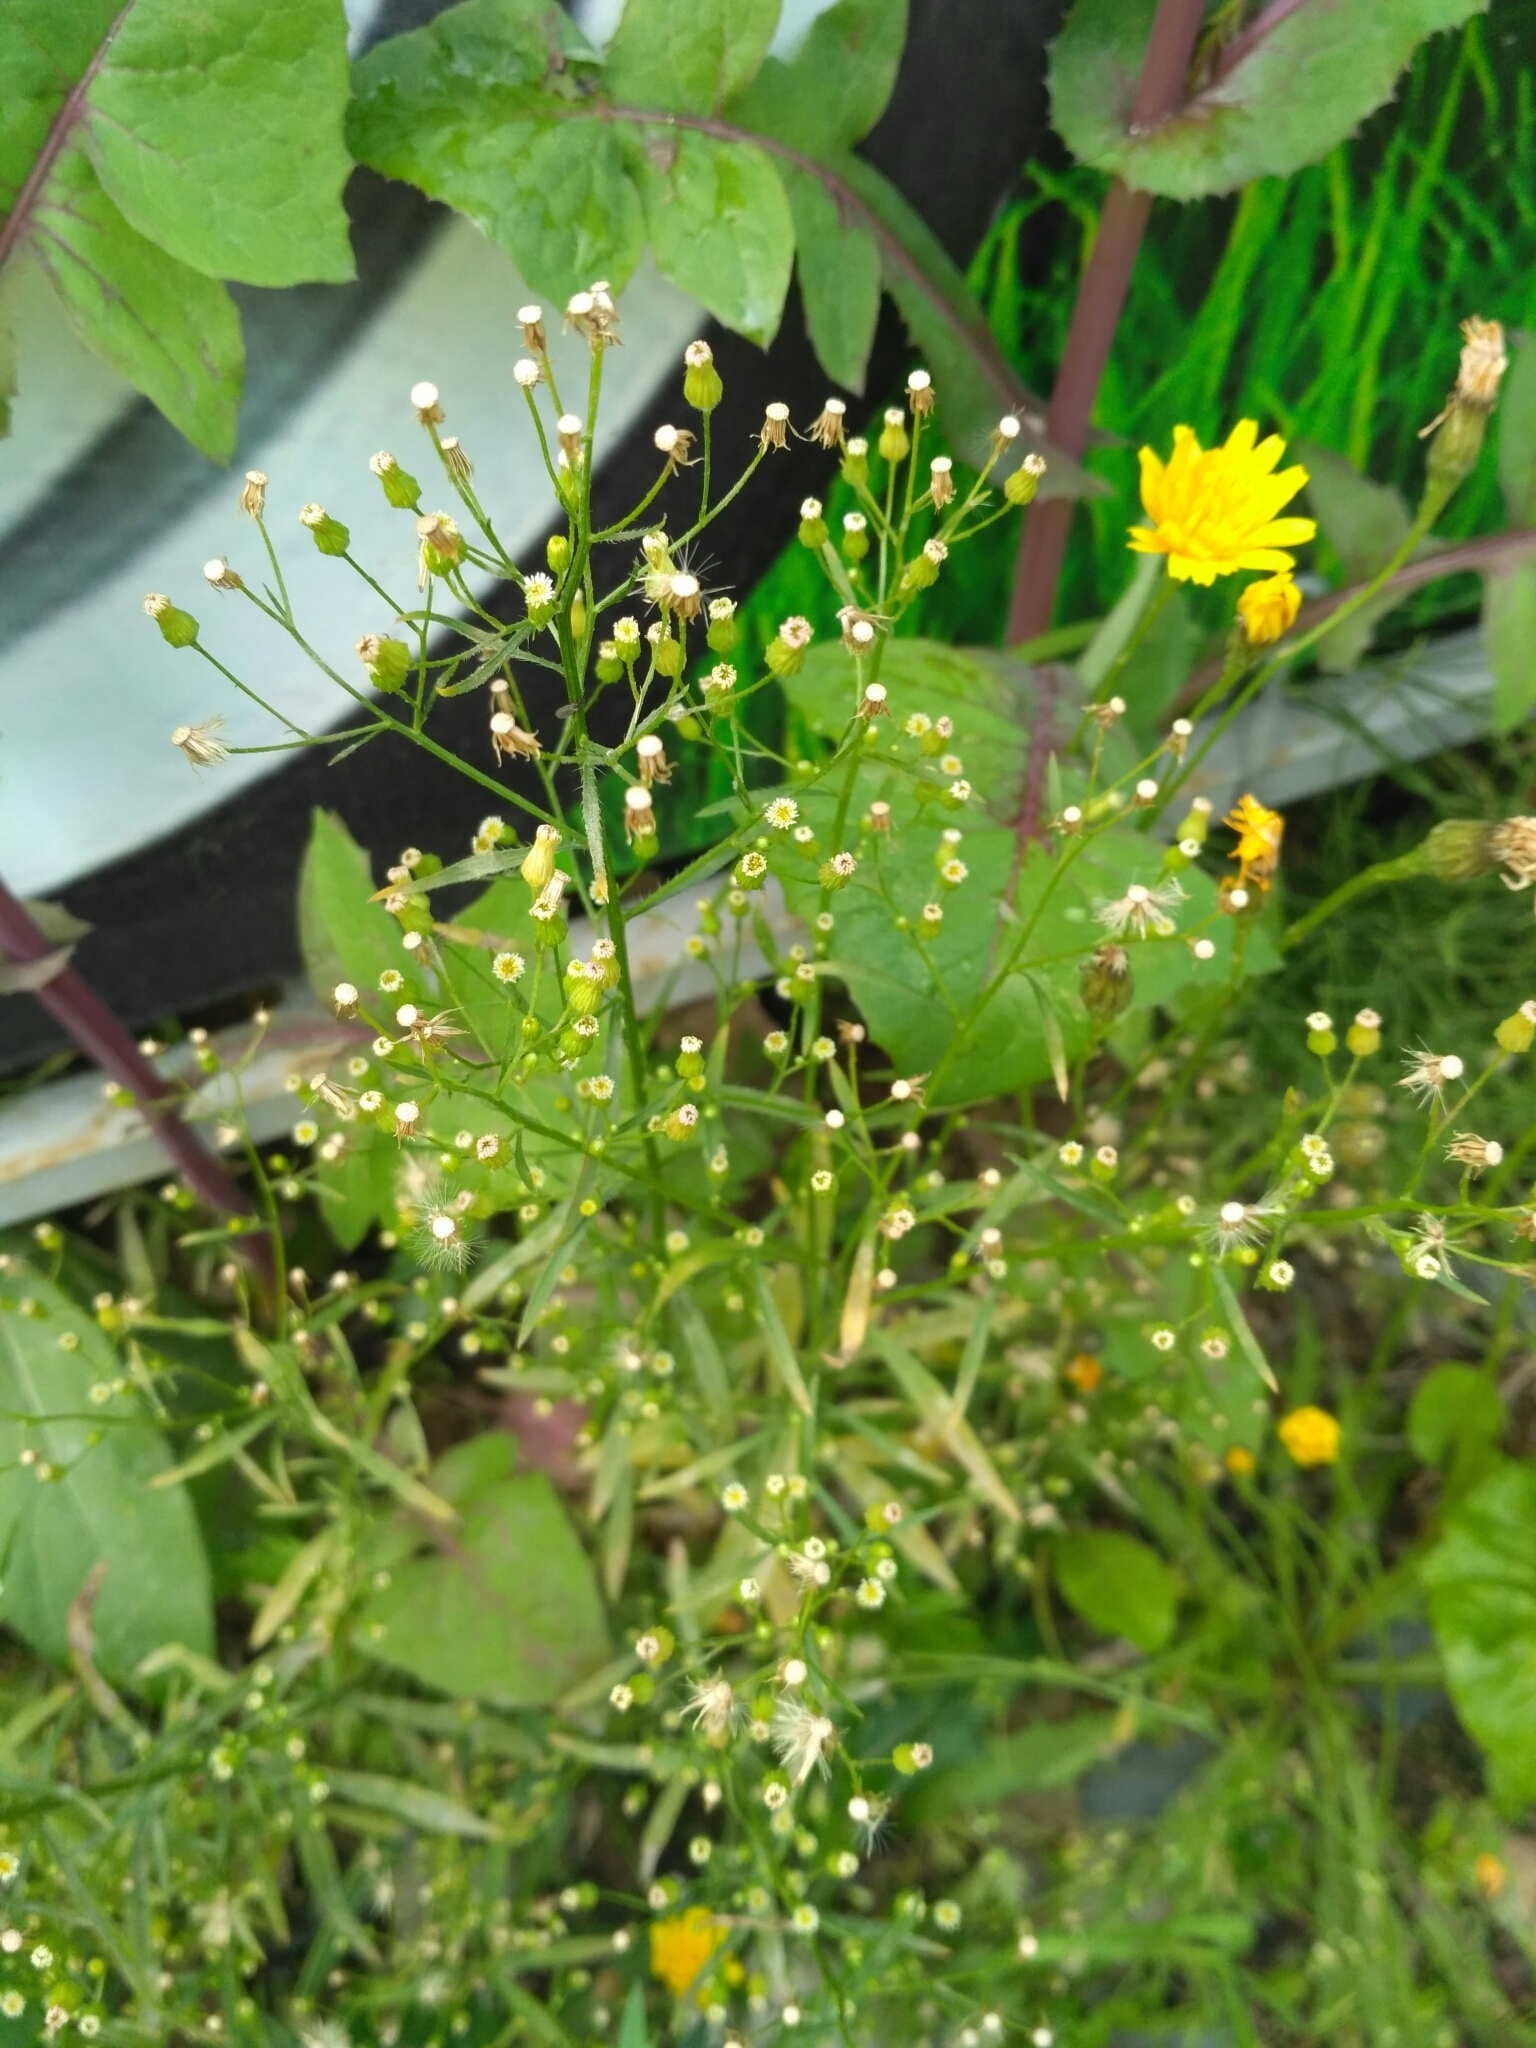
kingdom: Plantae
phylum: Tracheophyta
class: Magnoliopsida
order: Asterales
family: Asteraceae
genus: Erigeron
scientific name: Erigeron canadensis
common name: Canadian fleabane
